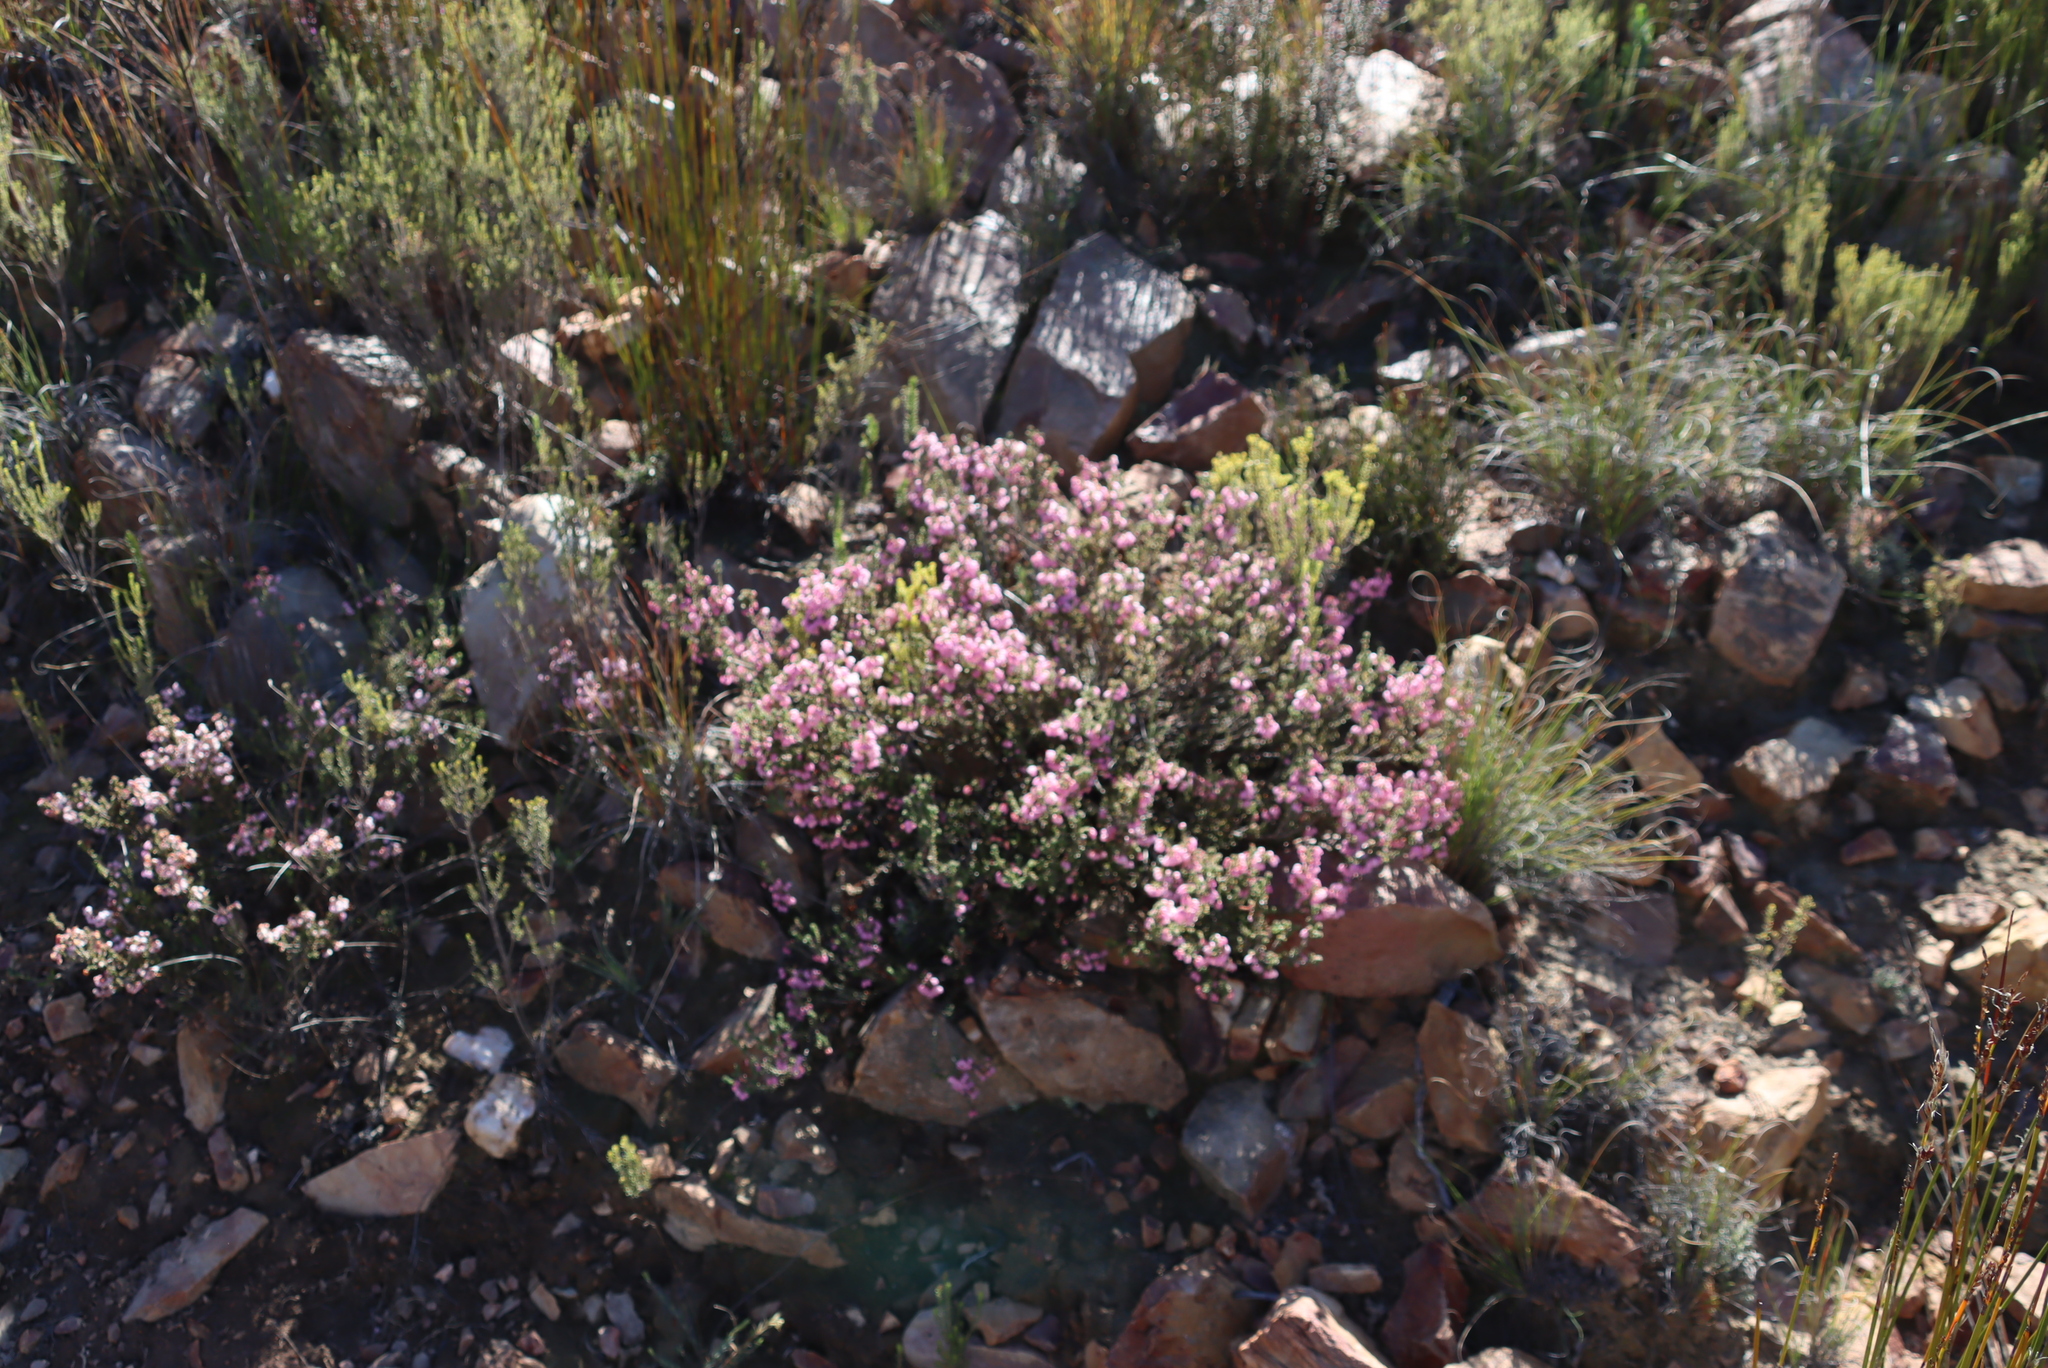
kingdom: Plantae
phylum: Tracheophyta
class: Magnoliopsida
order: Ericales
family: Ericaceae
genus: Erica
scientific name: Erica umbelliflora
